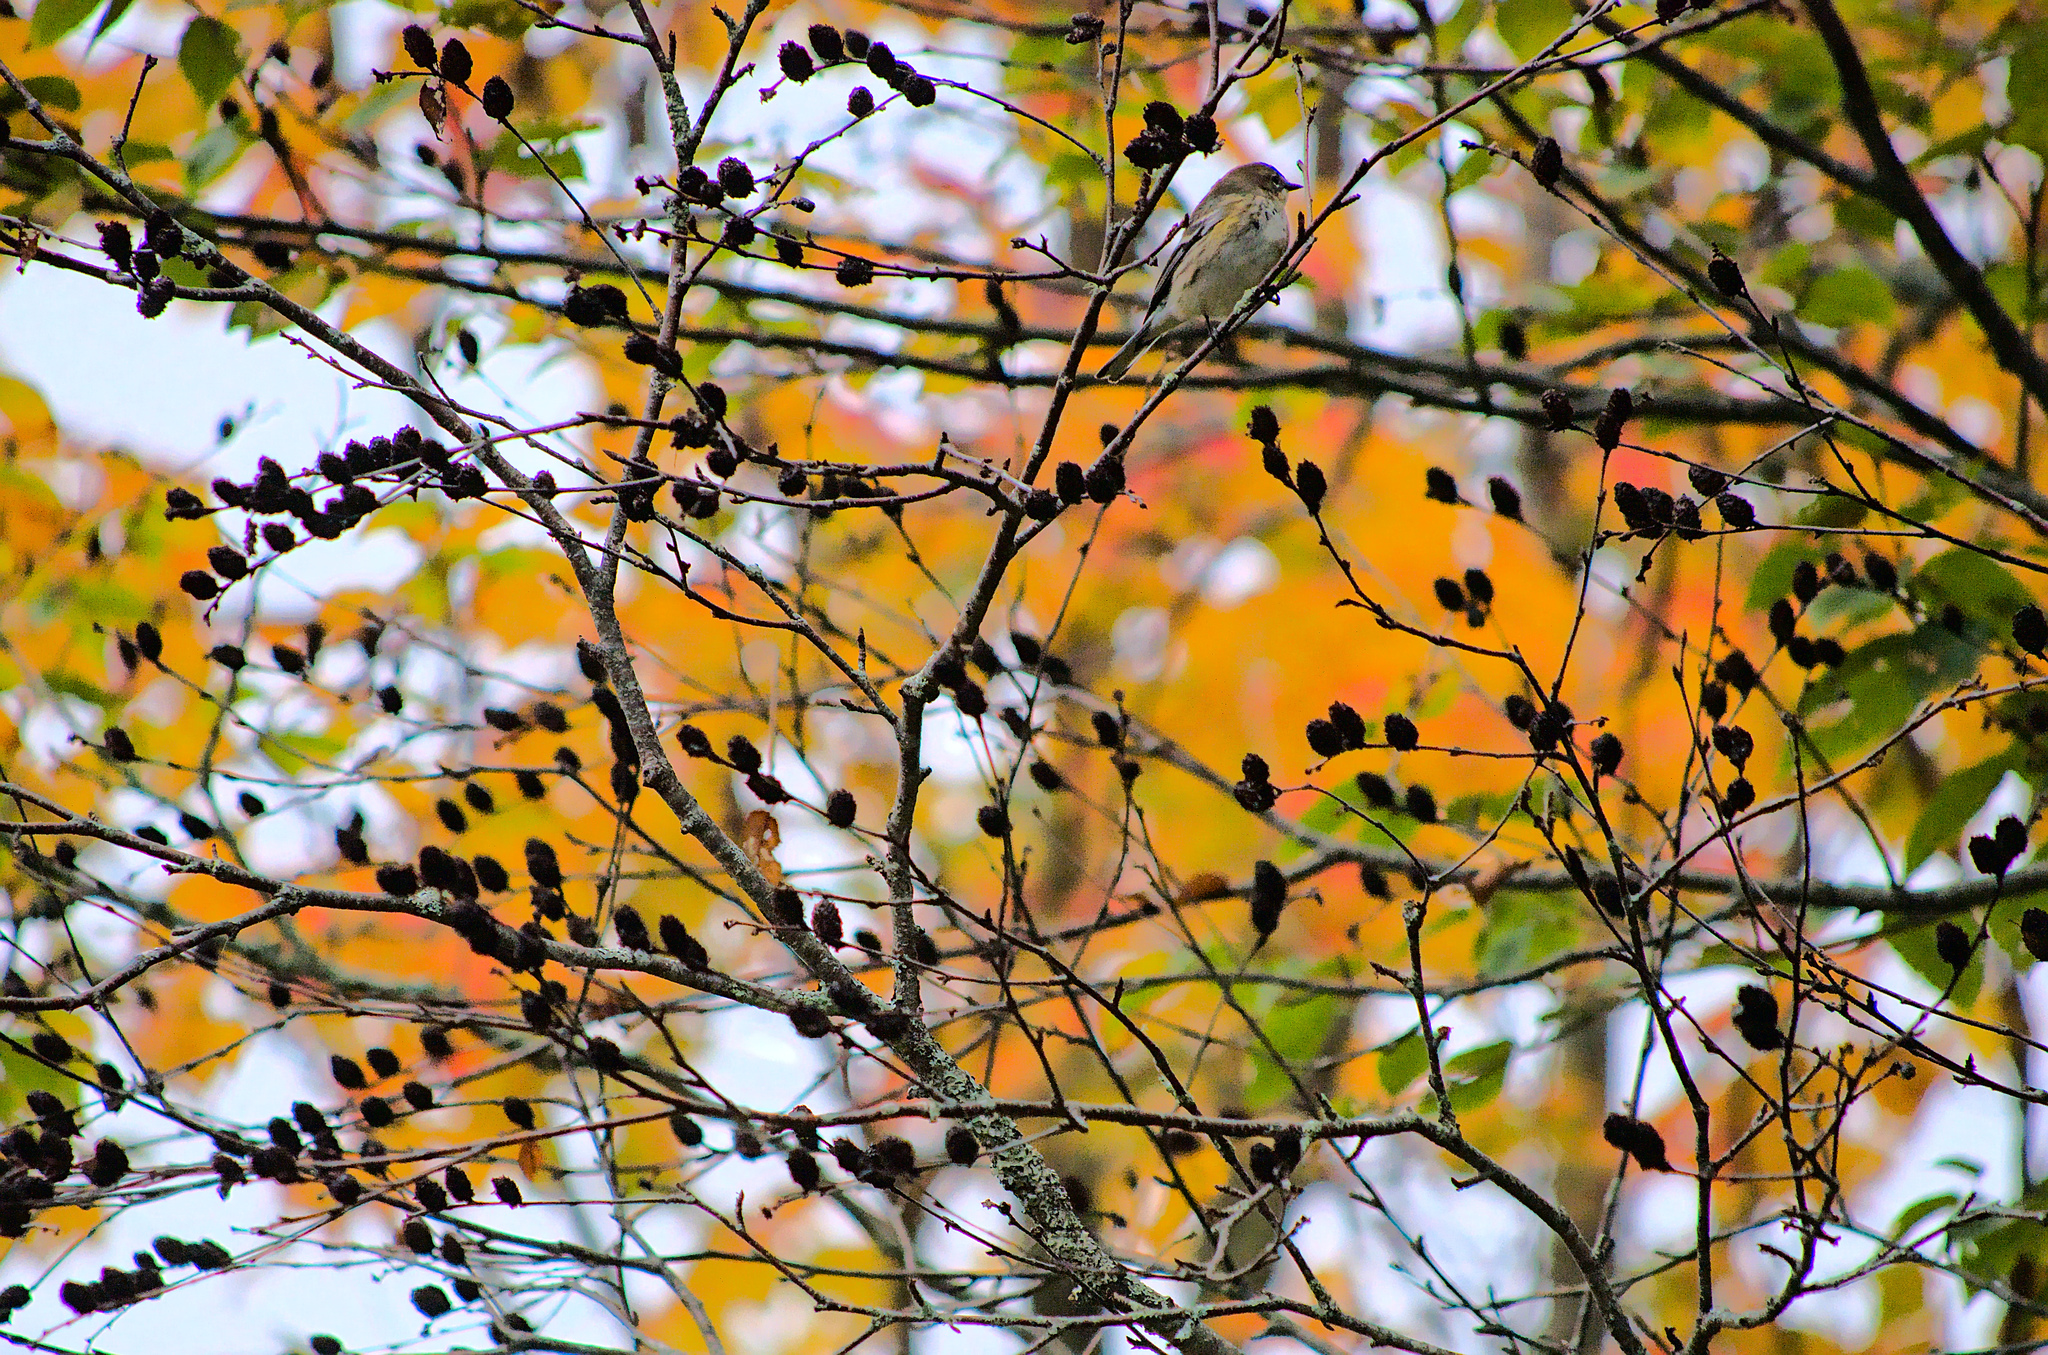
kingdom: Animalia
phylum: Chordata
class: Aves
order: Passeriformes
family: Parulidae
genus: Setophaga
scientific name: Setophaga coronata
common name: Myrtle warbler
